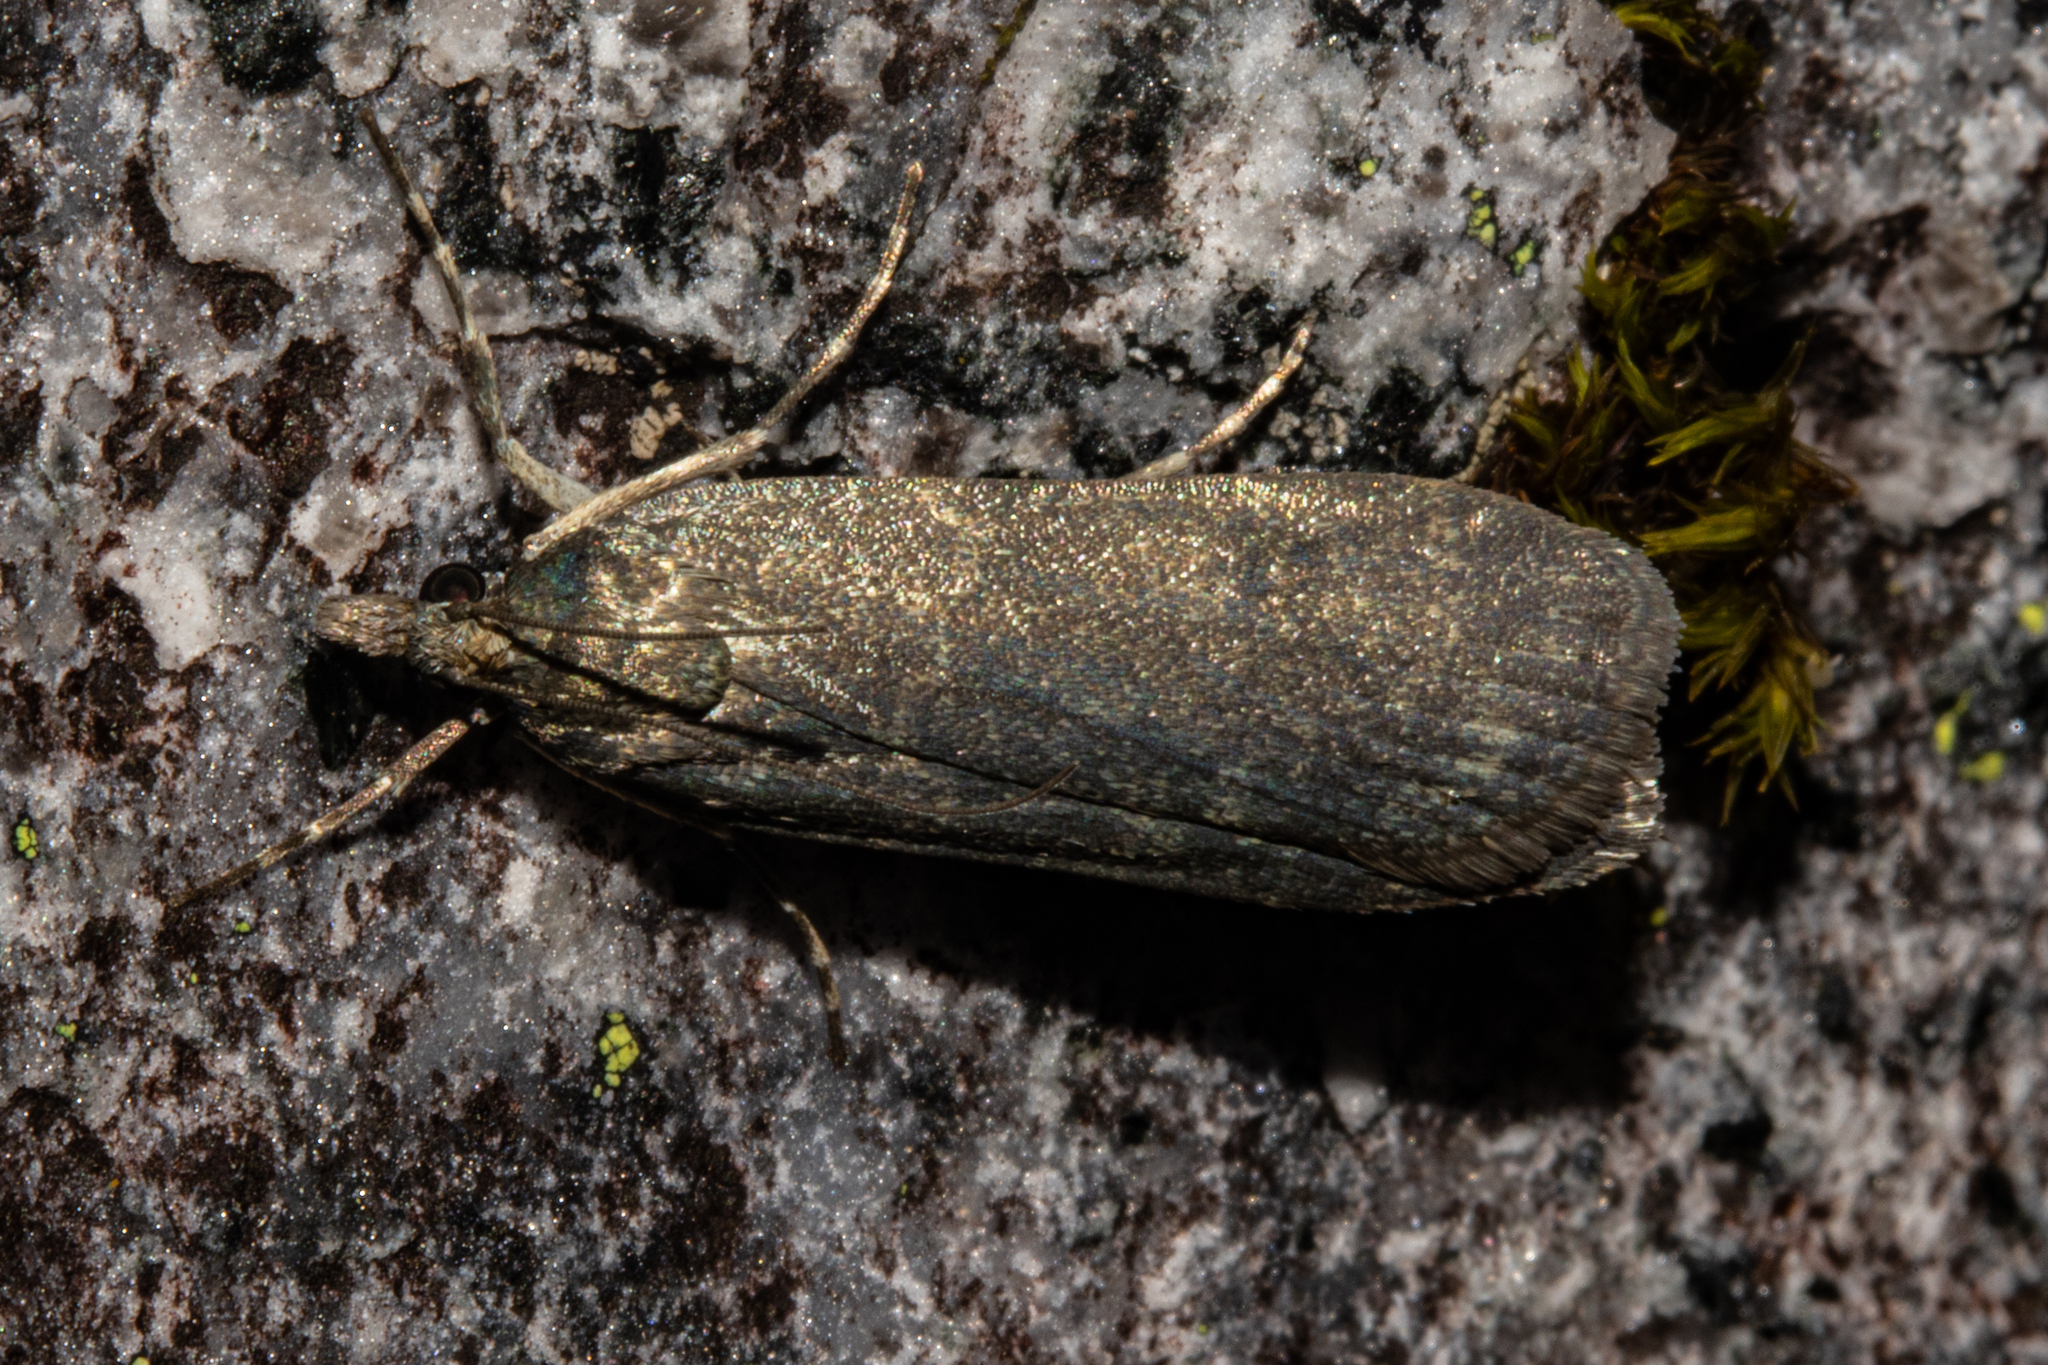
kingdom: Animalia
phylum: Arthropoda
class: Insecta
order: Lepidoptera
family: Crambidae
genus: Eudonia
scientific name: Eudonia cataxesta
